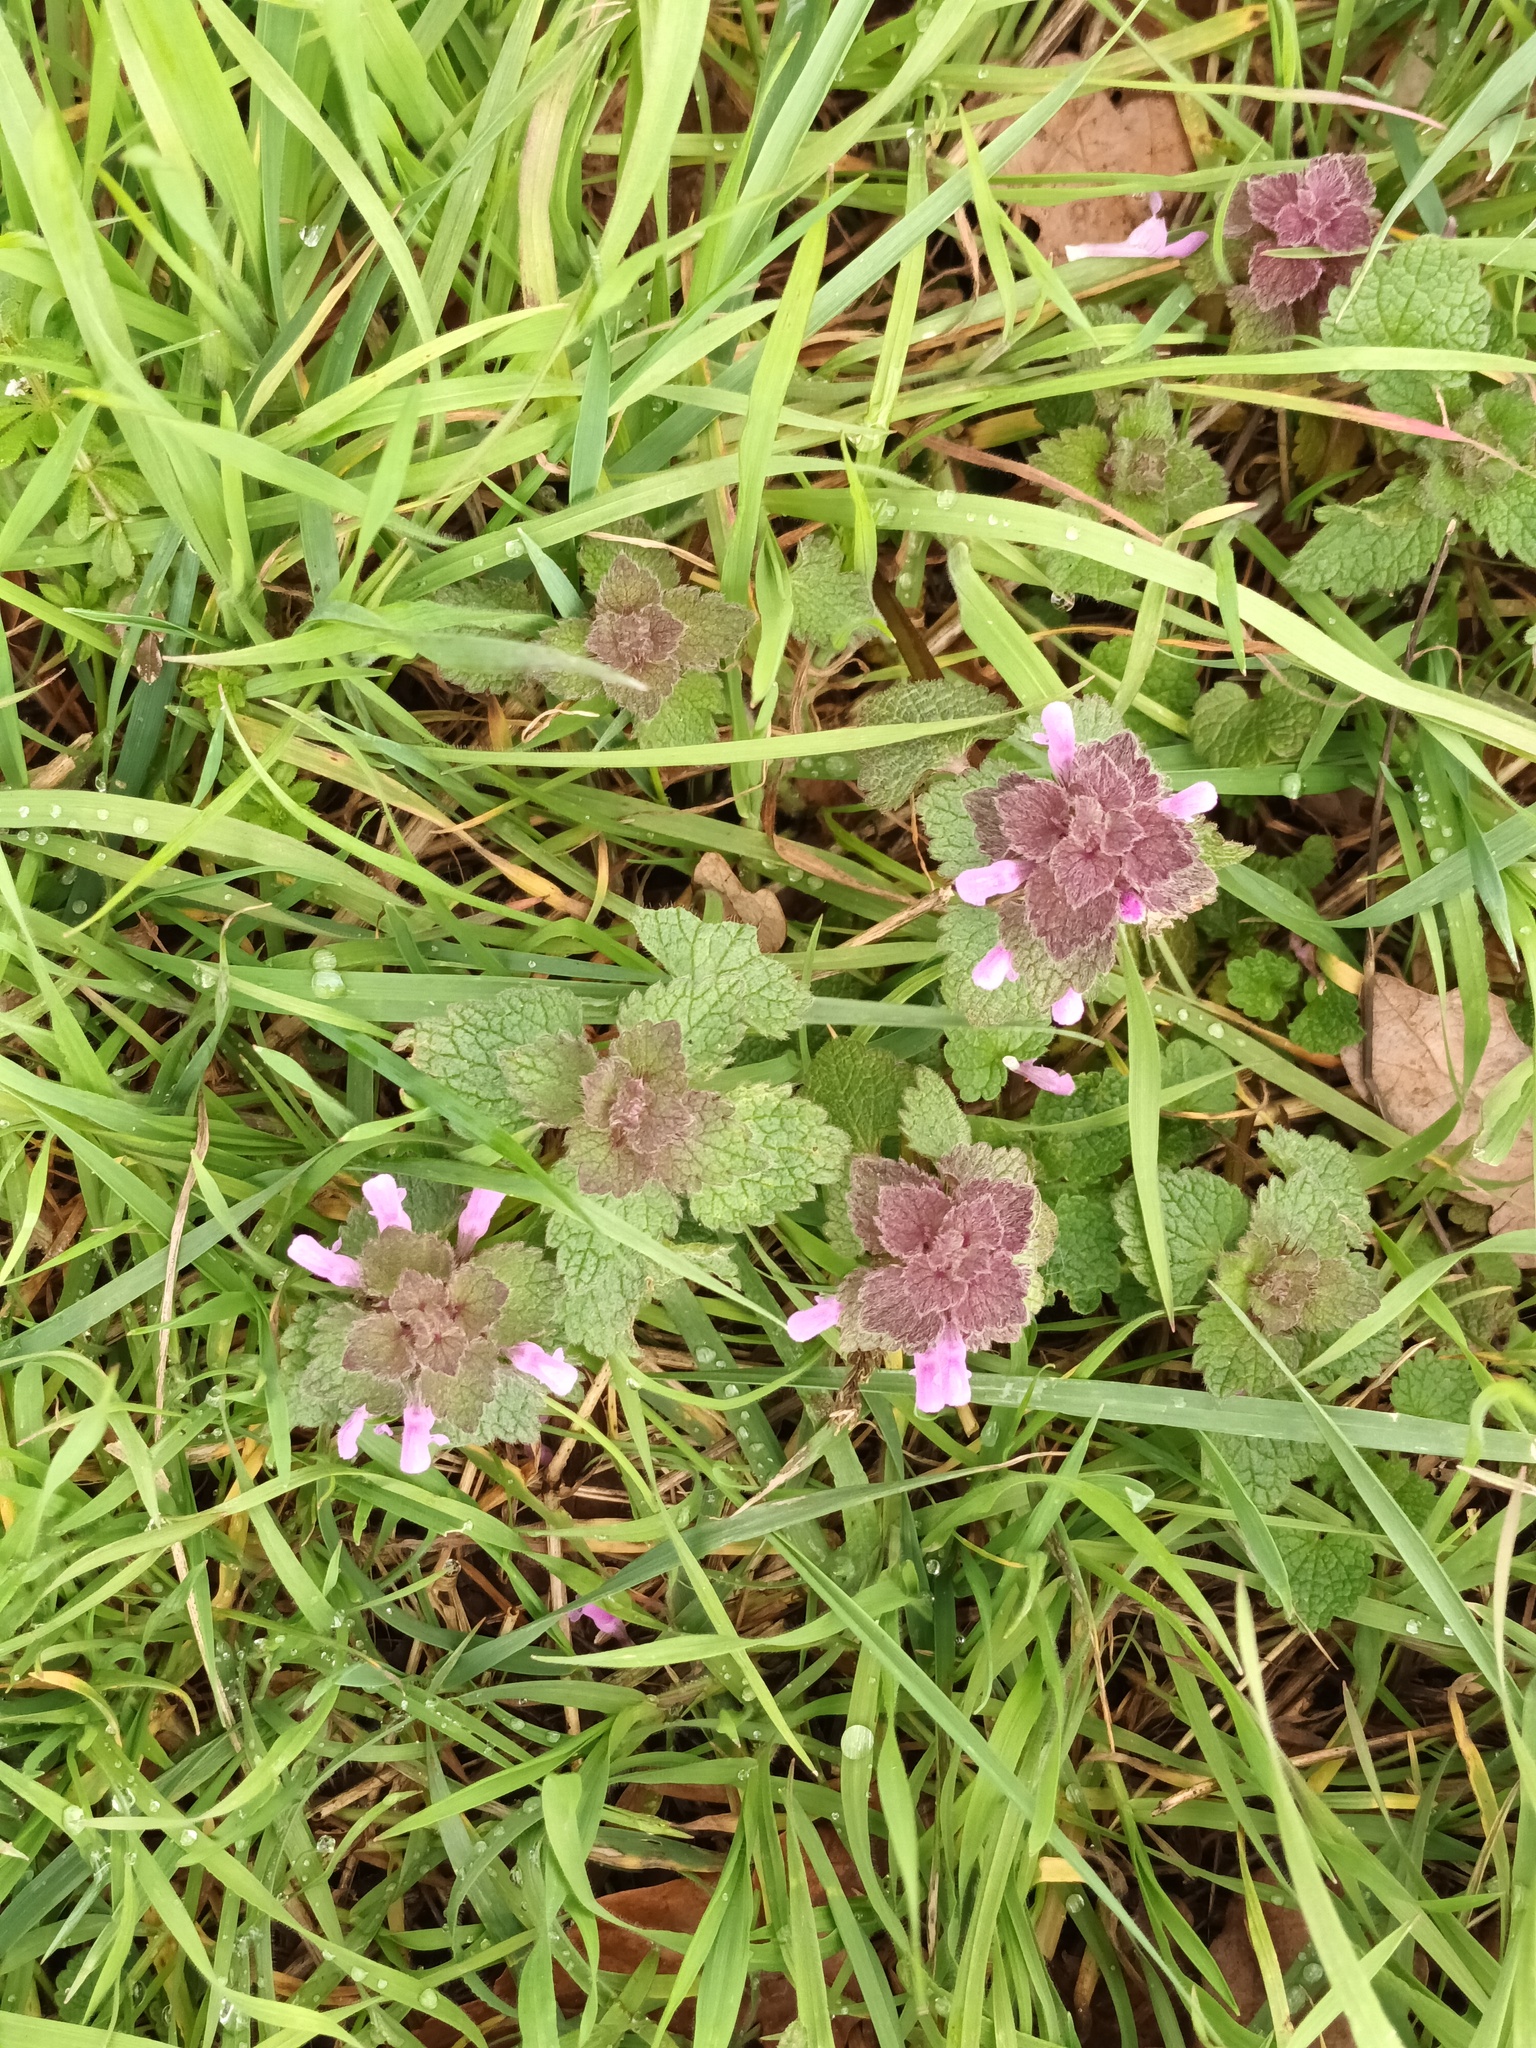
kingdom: Plantae
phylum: Tracheophyta
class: Magnoliopsida
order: Lamiales
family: Lamiaceae
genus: Lamium
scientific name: Lamium purpureum
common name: Red dead-nettle
